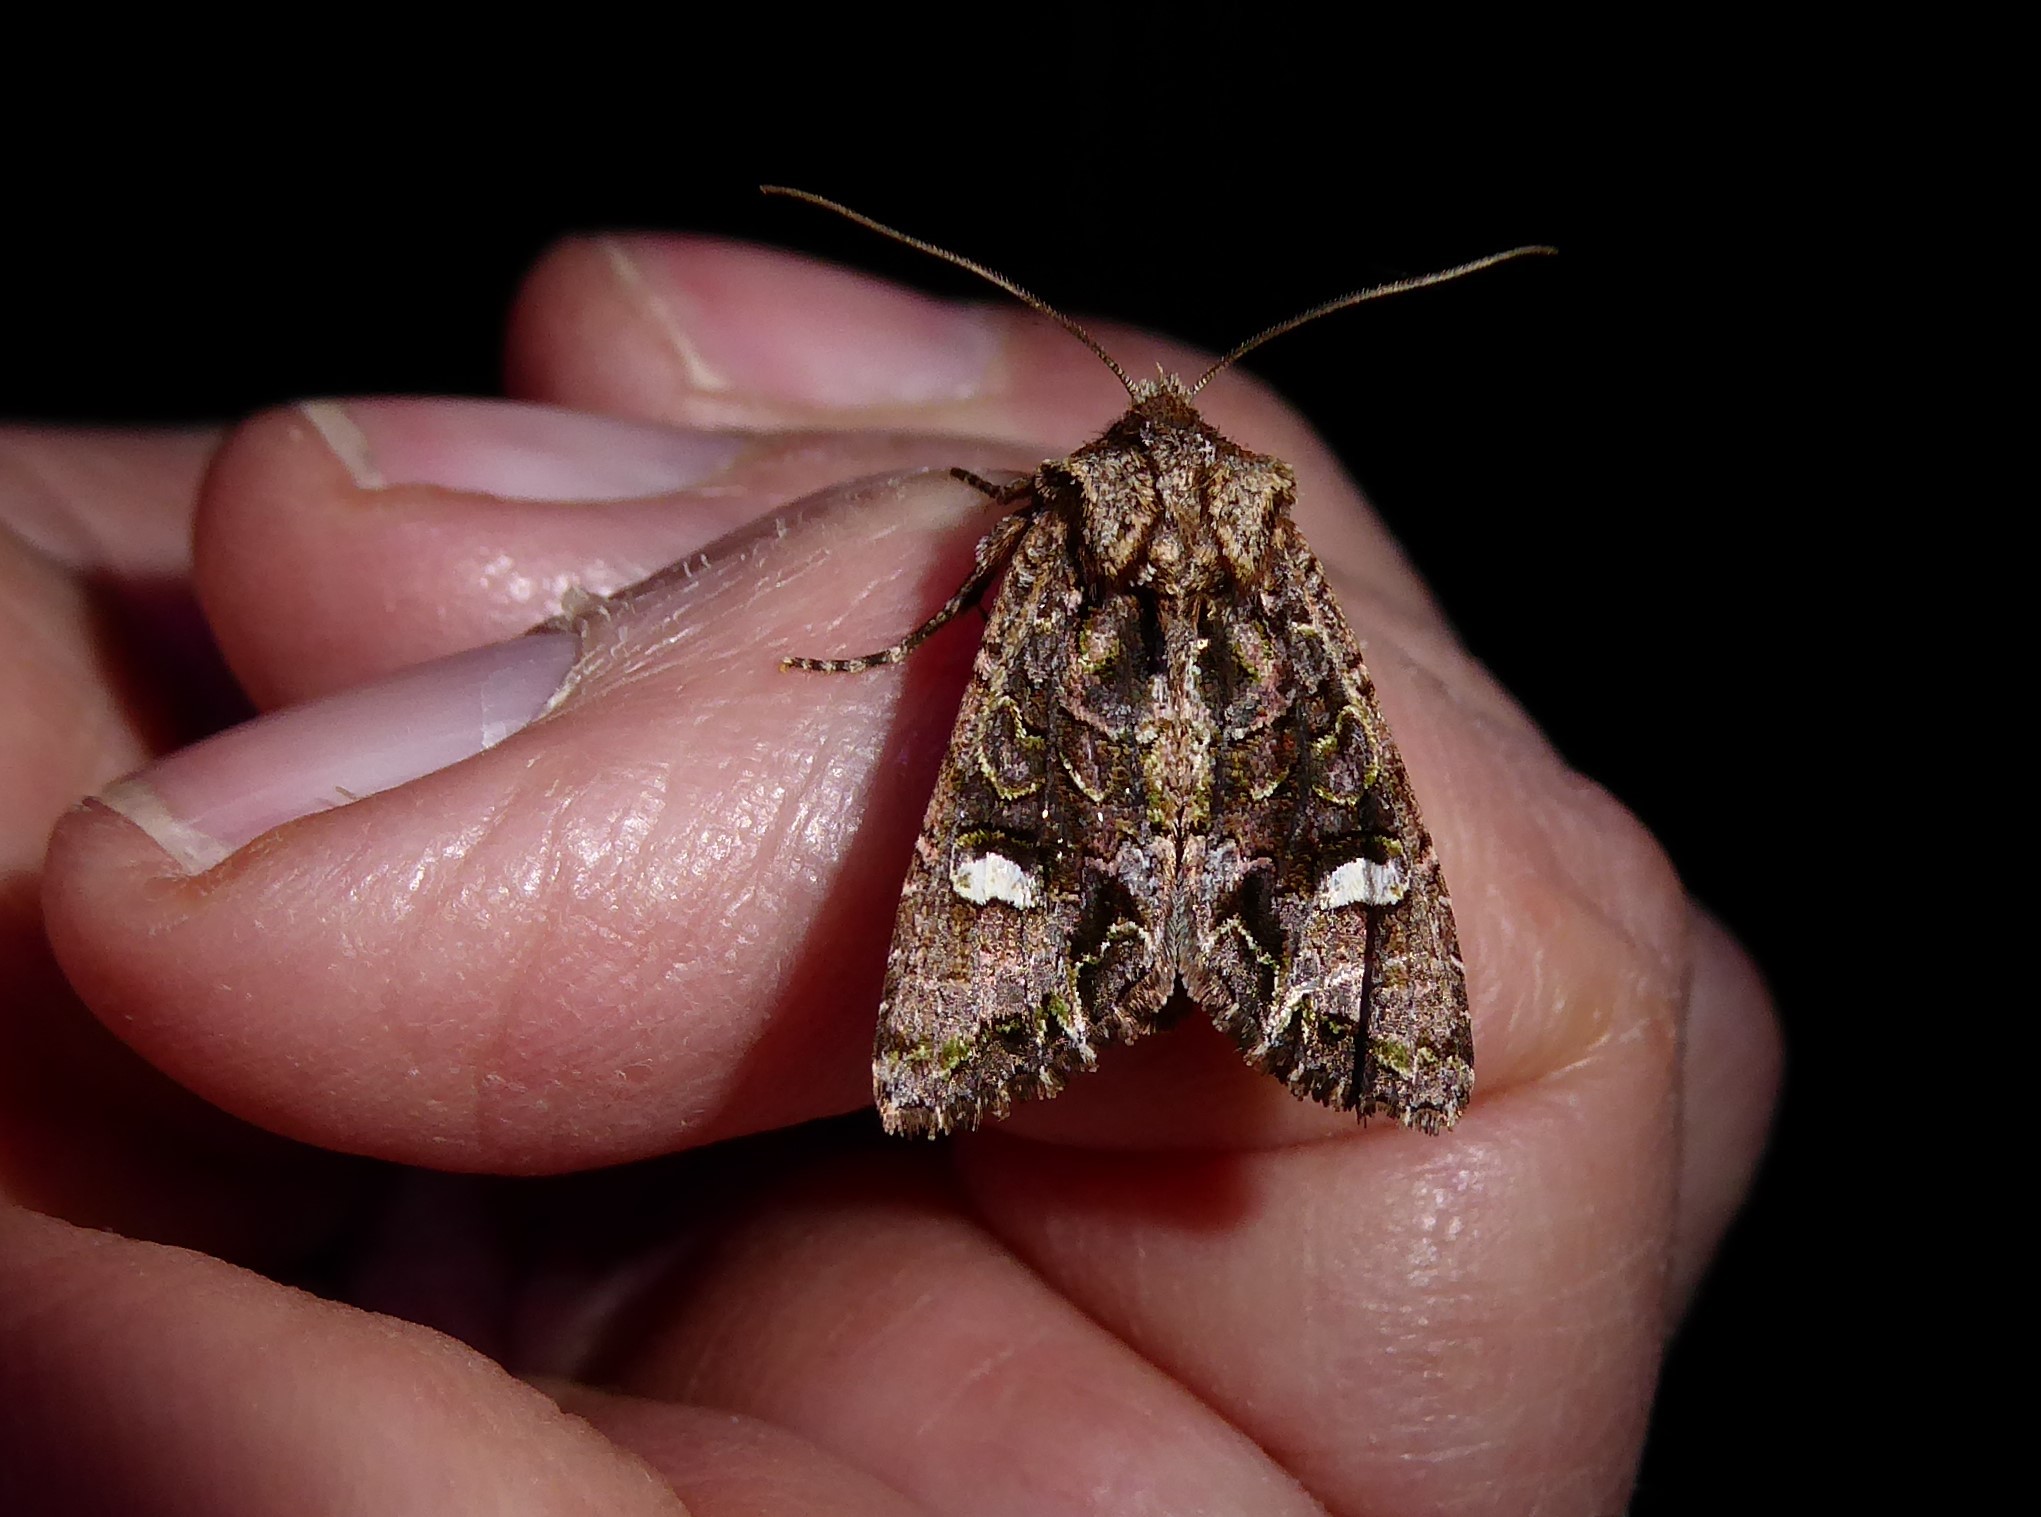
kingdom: Animalia
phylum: Arthropoda
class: Insecta
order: Lepidoptera
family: Noctuidae
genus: Ichneutica
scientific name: Ichneutica insignis
